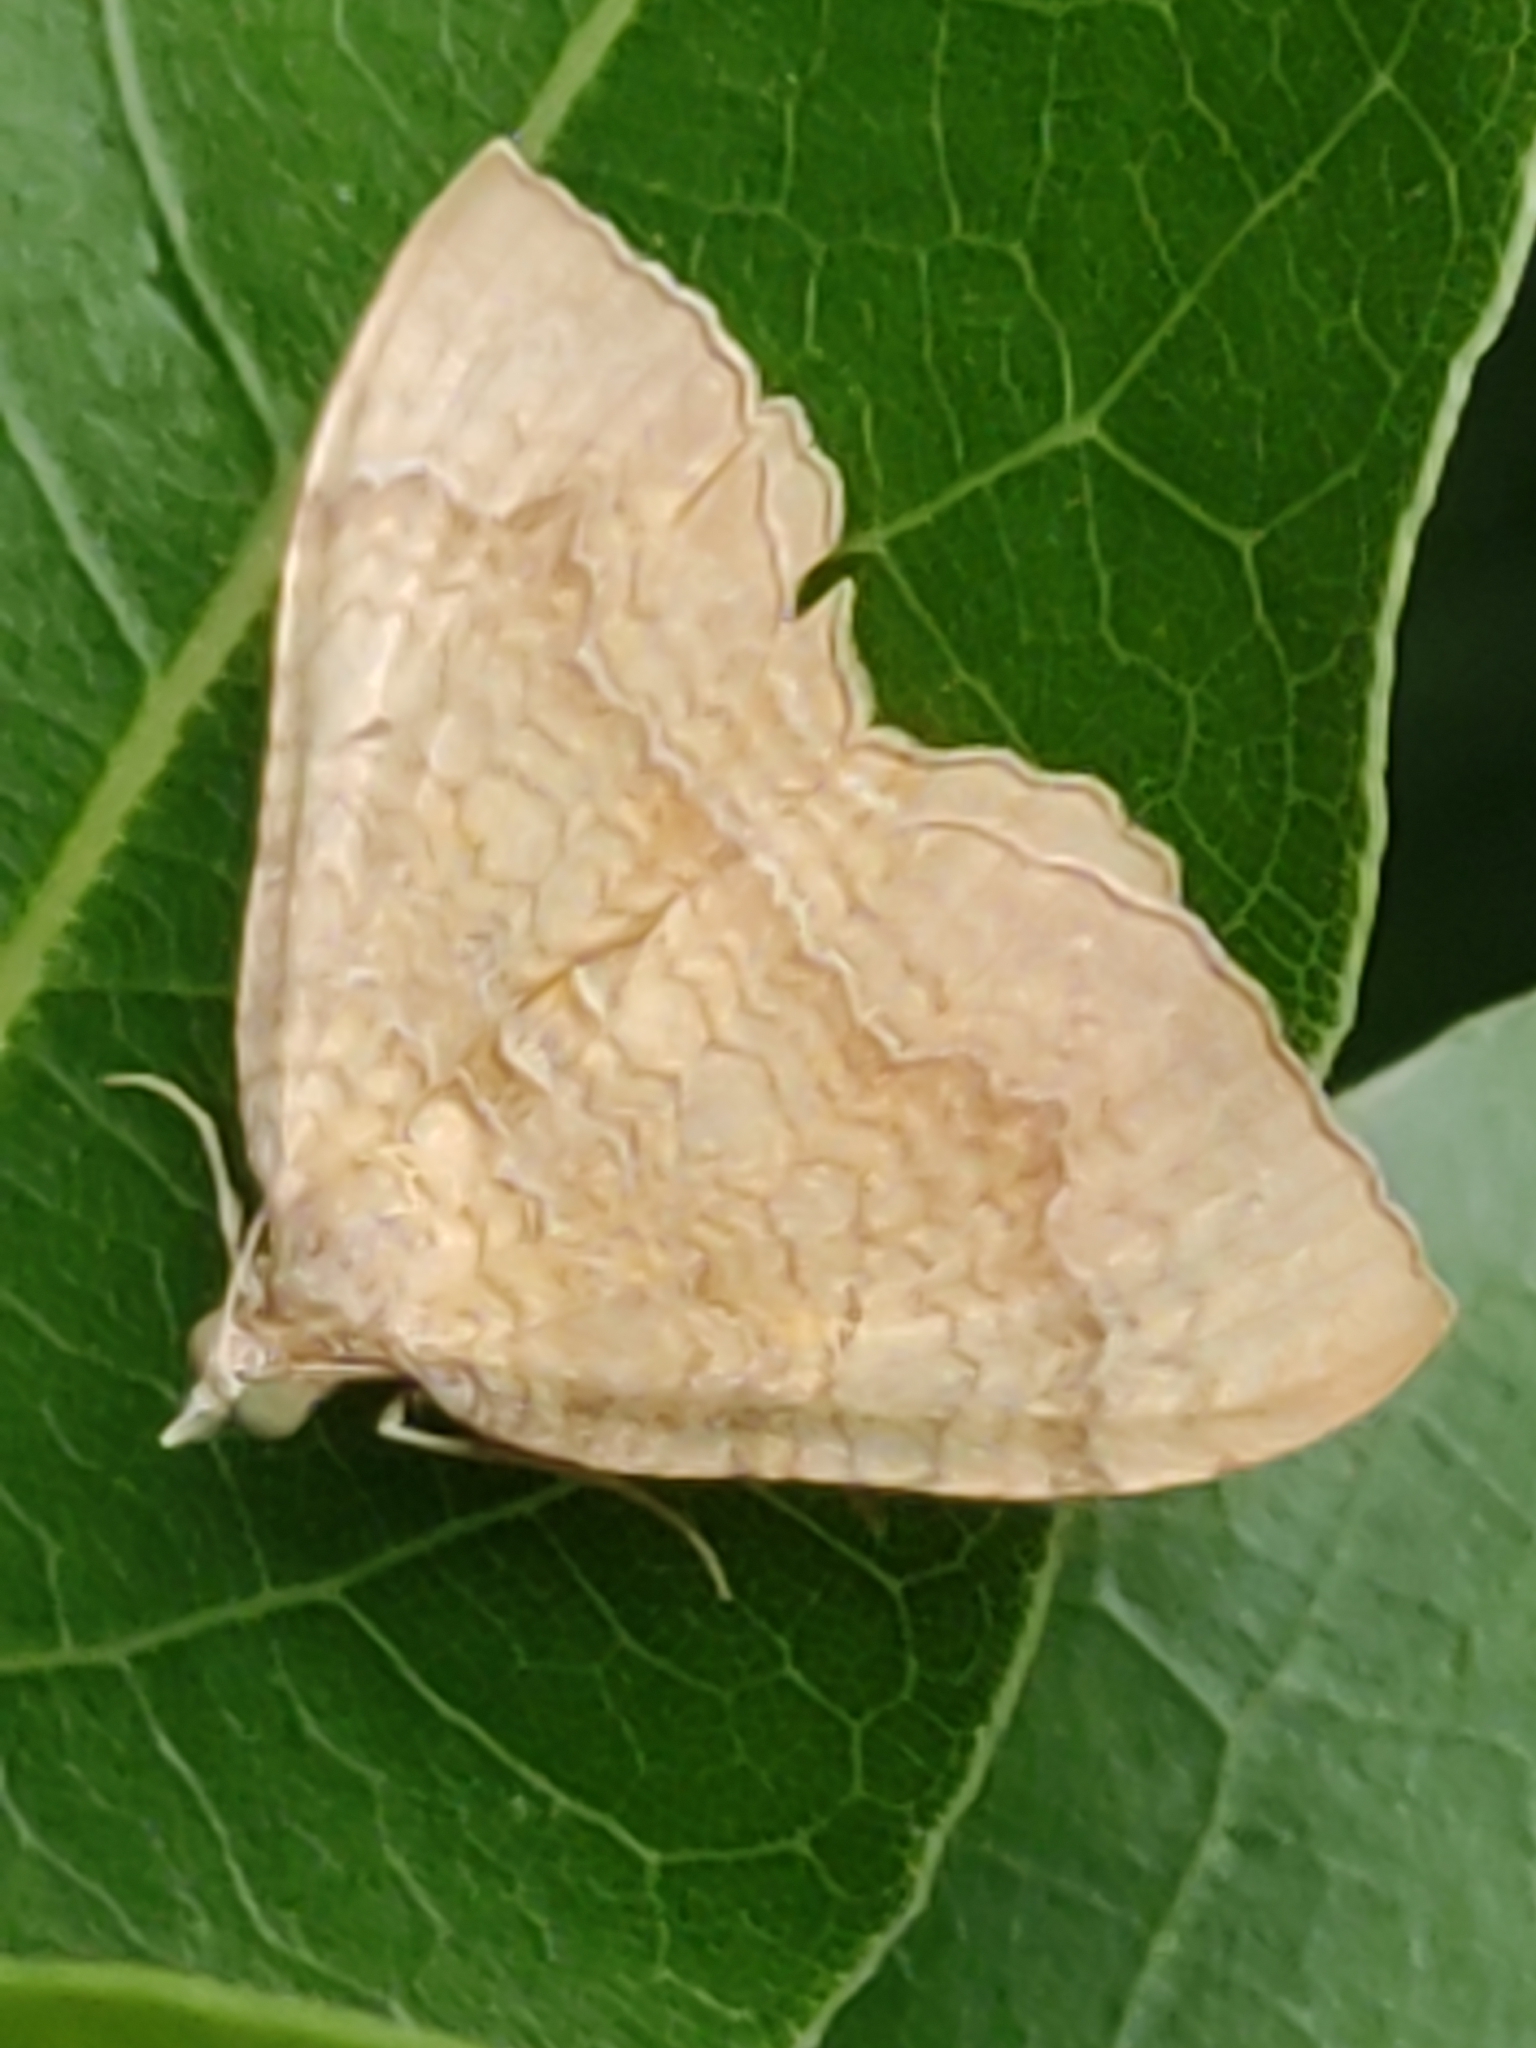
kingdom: Animalia
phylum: Arthropoda
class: Insecta
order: Lepidoptera
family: Geometridae
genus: Camptogramma
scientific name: Camptogramma bilineata
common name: Yellow shell
